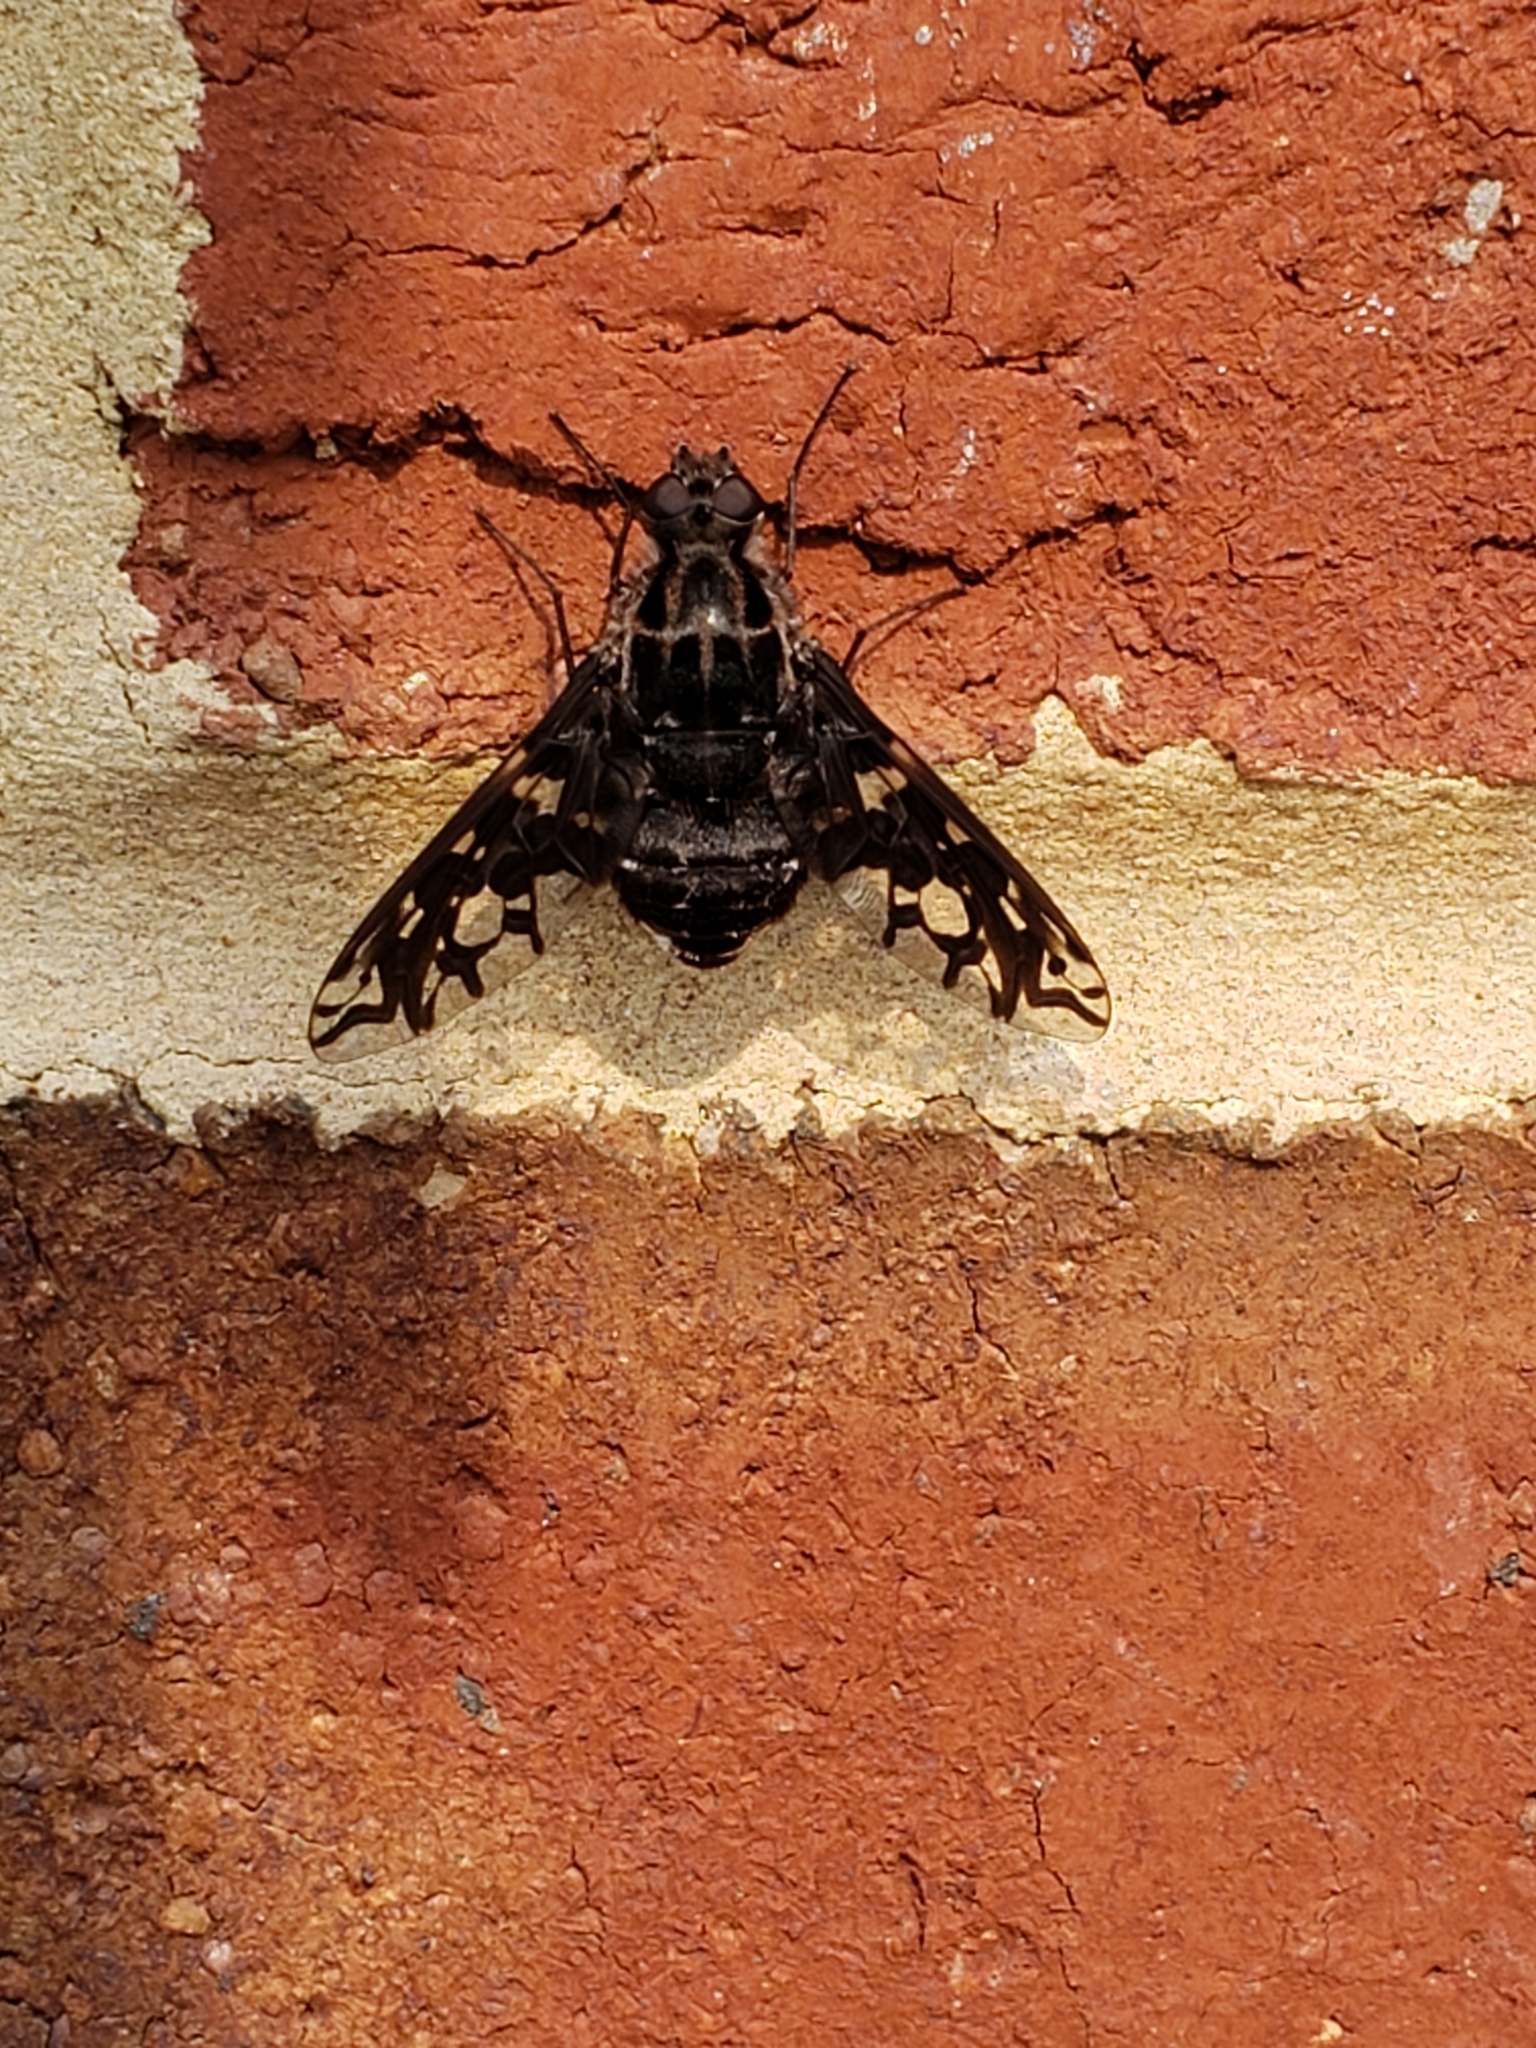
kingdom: Animalia
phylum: Arthropoda
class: Insecta
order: Diptera
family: Bombyliidae
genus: Xenox
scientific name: Xenox tigrinus
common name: Tiger bee fly
